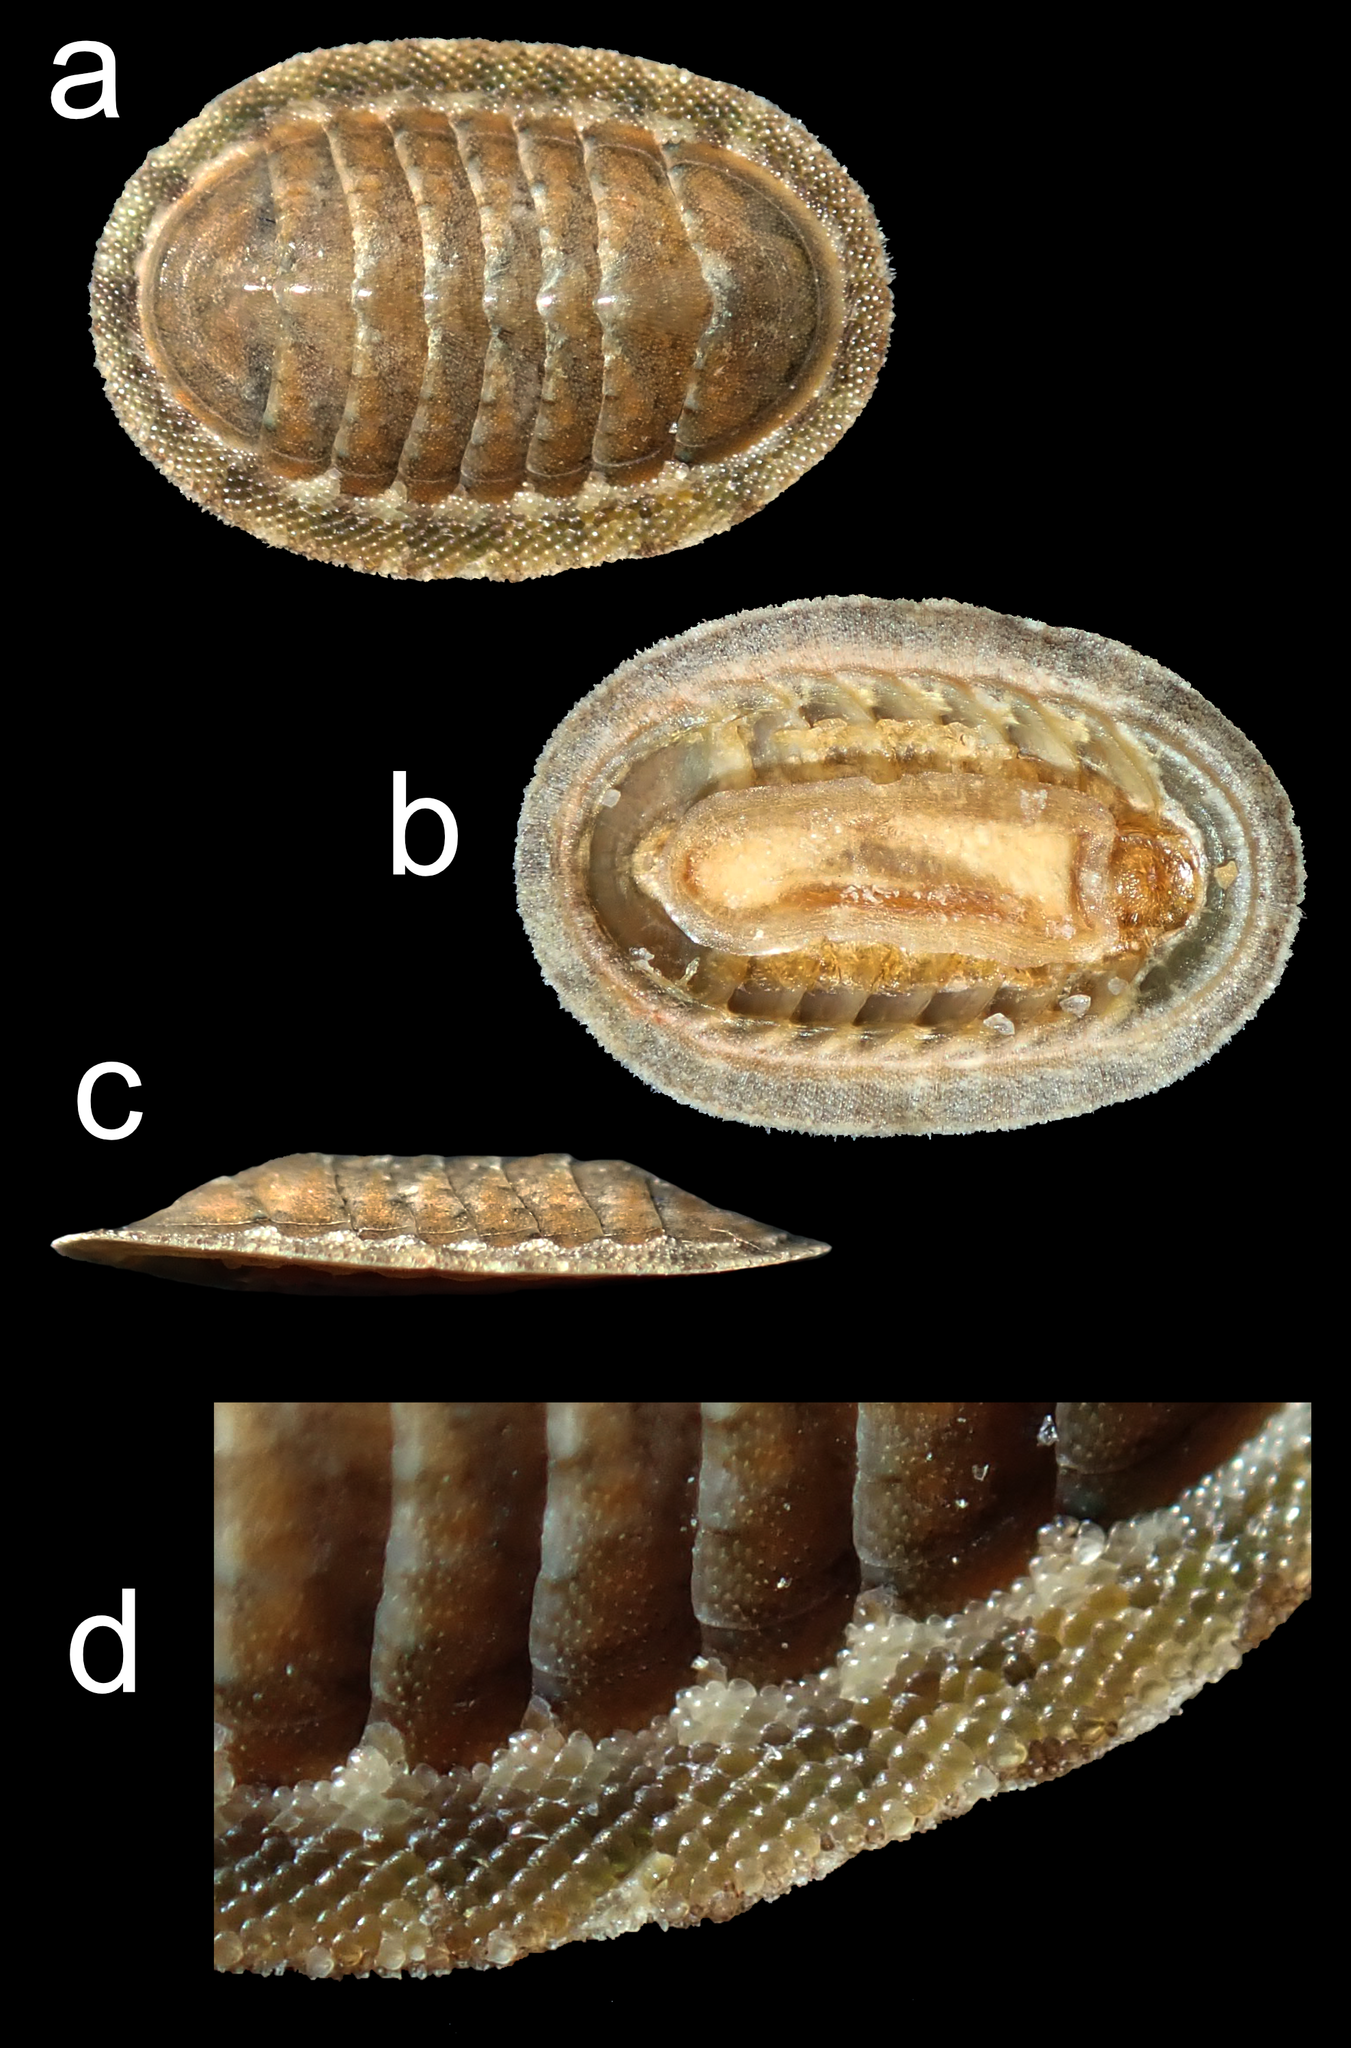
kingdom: Animalia
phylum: Mollusca
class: Polyplacophora
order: Chitonida
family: Ischnochitonidae
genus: Ischnochiton
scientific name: Ischnochiton lentiginosus
